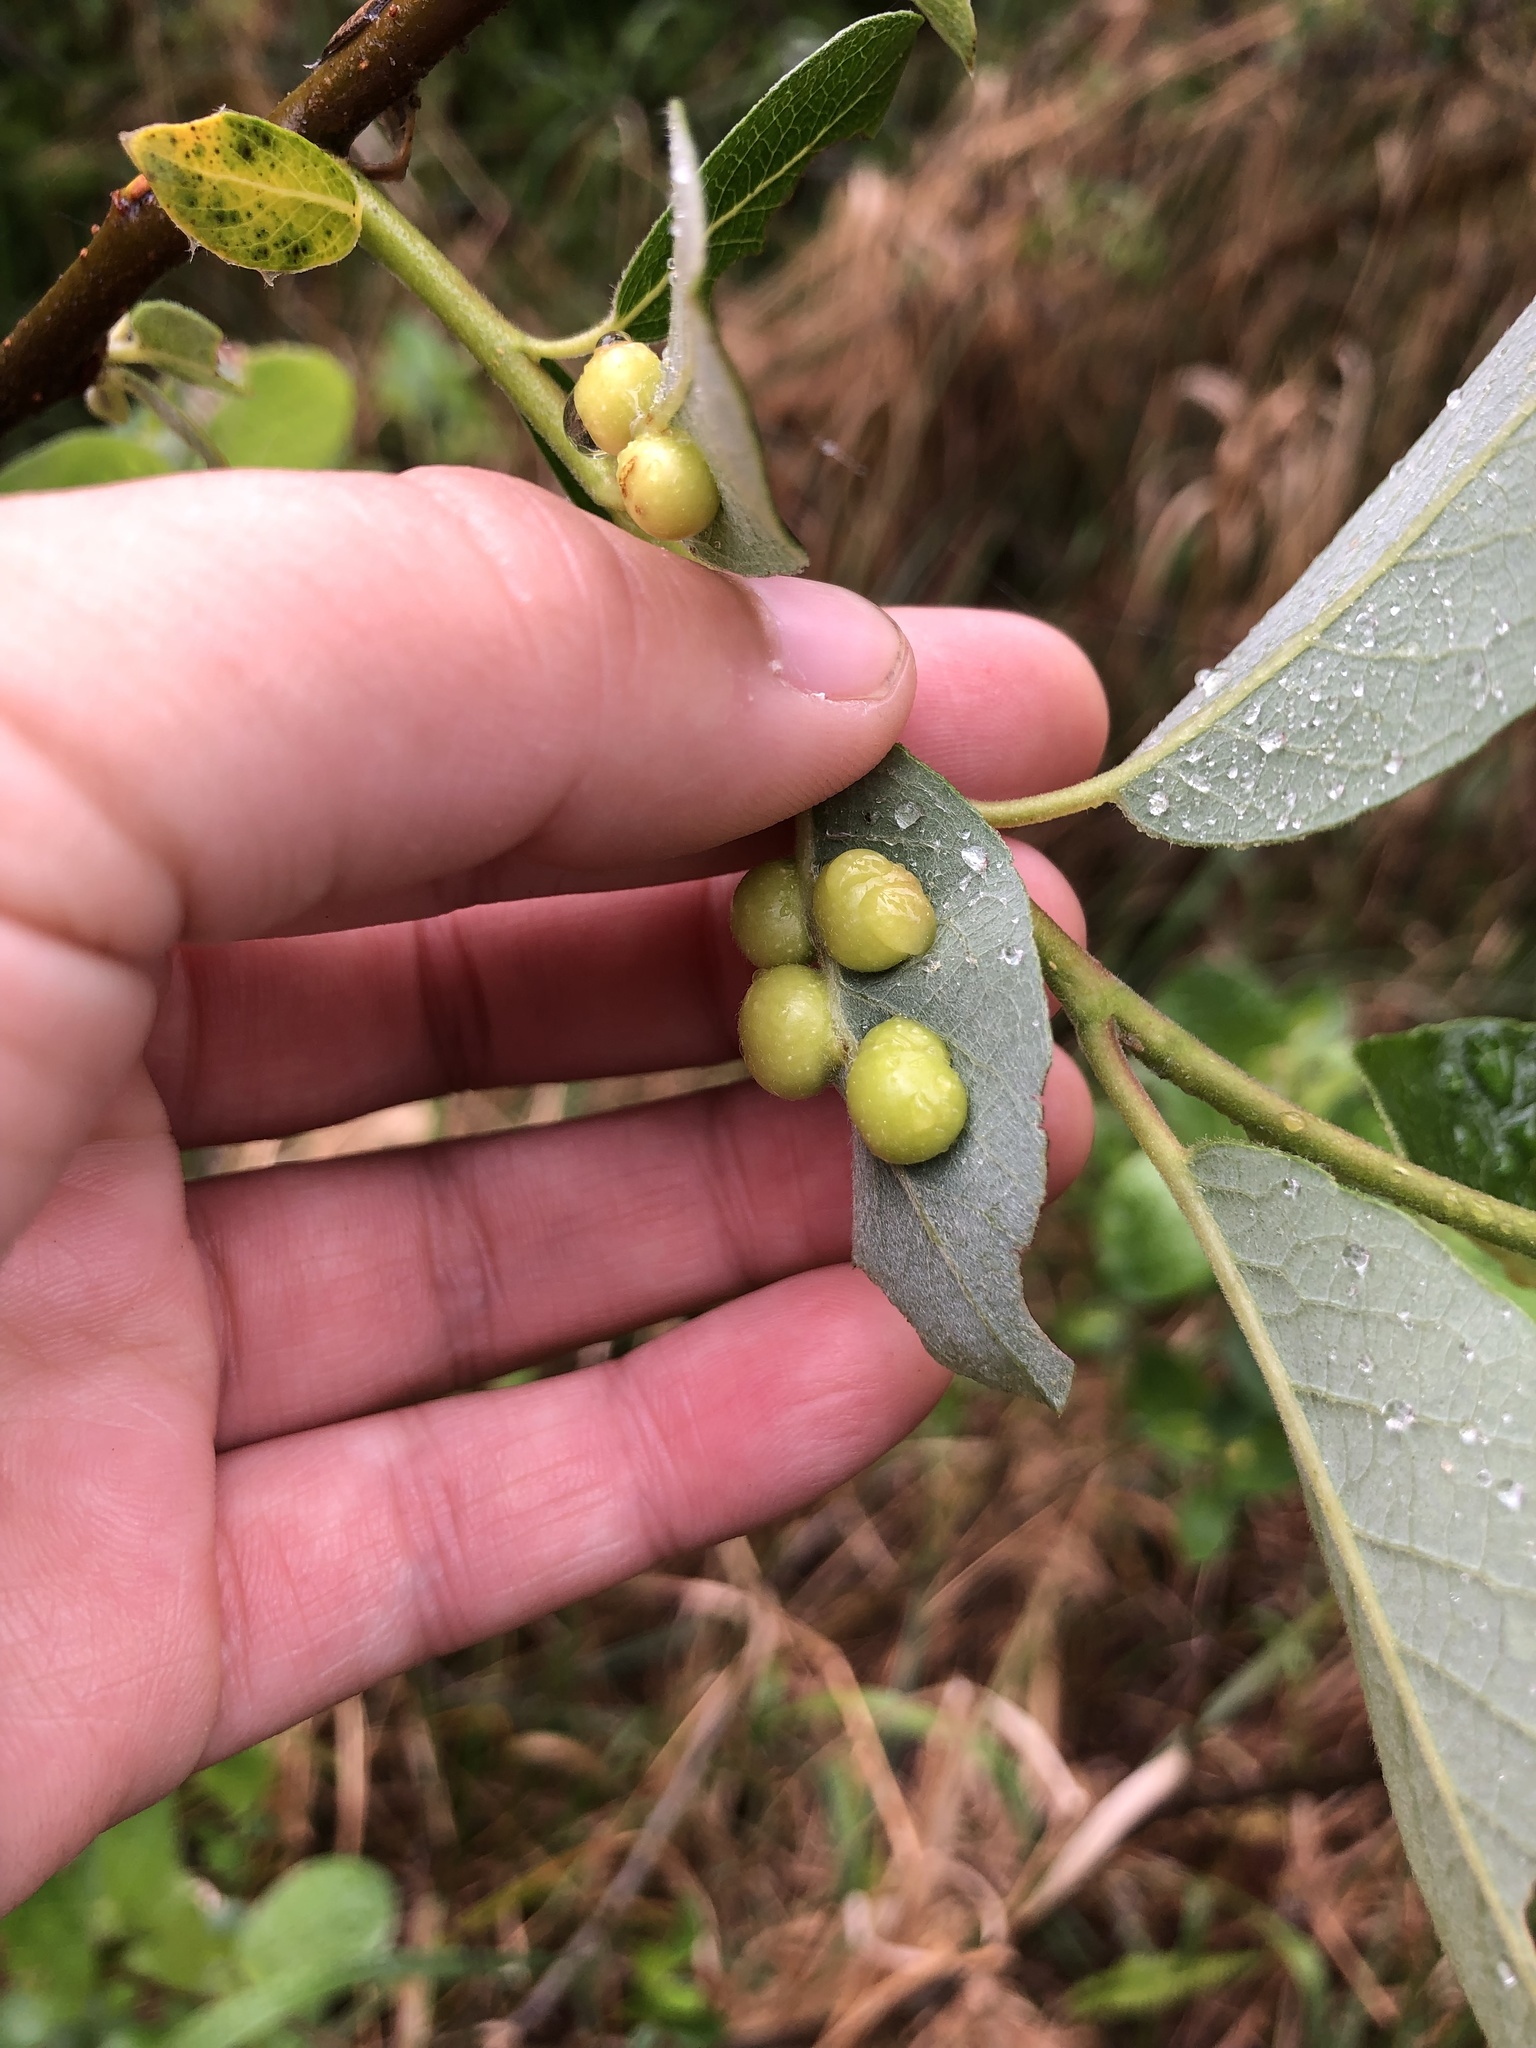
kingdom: Animalia
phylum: Arthropoda
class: Insecta
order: Hymenoptera
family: Tenthredinidae
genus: Euura
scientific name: Euura
